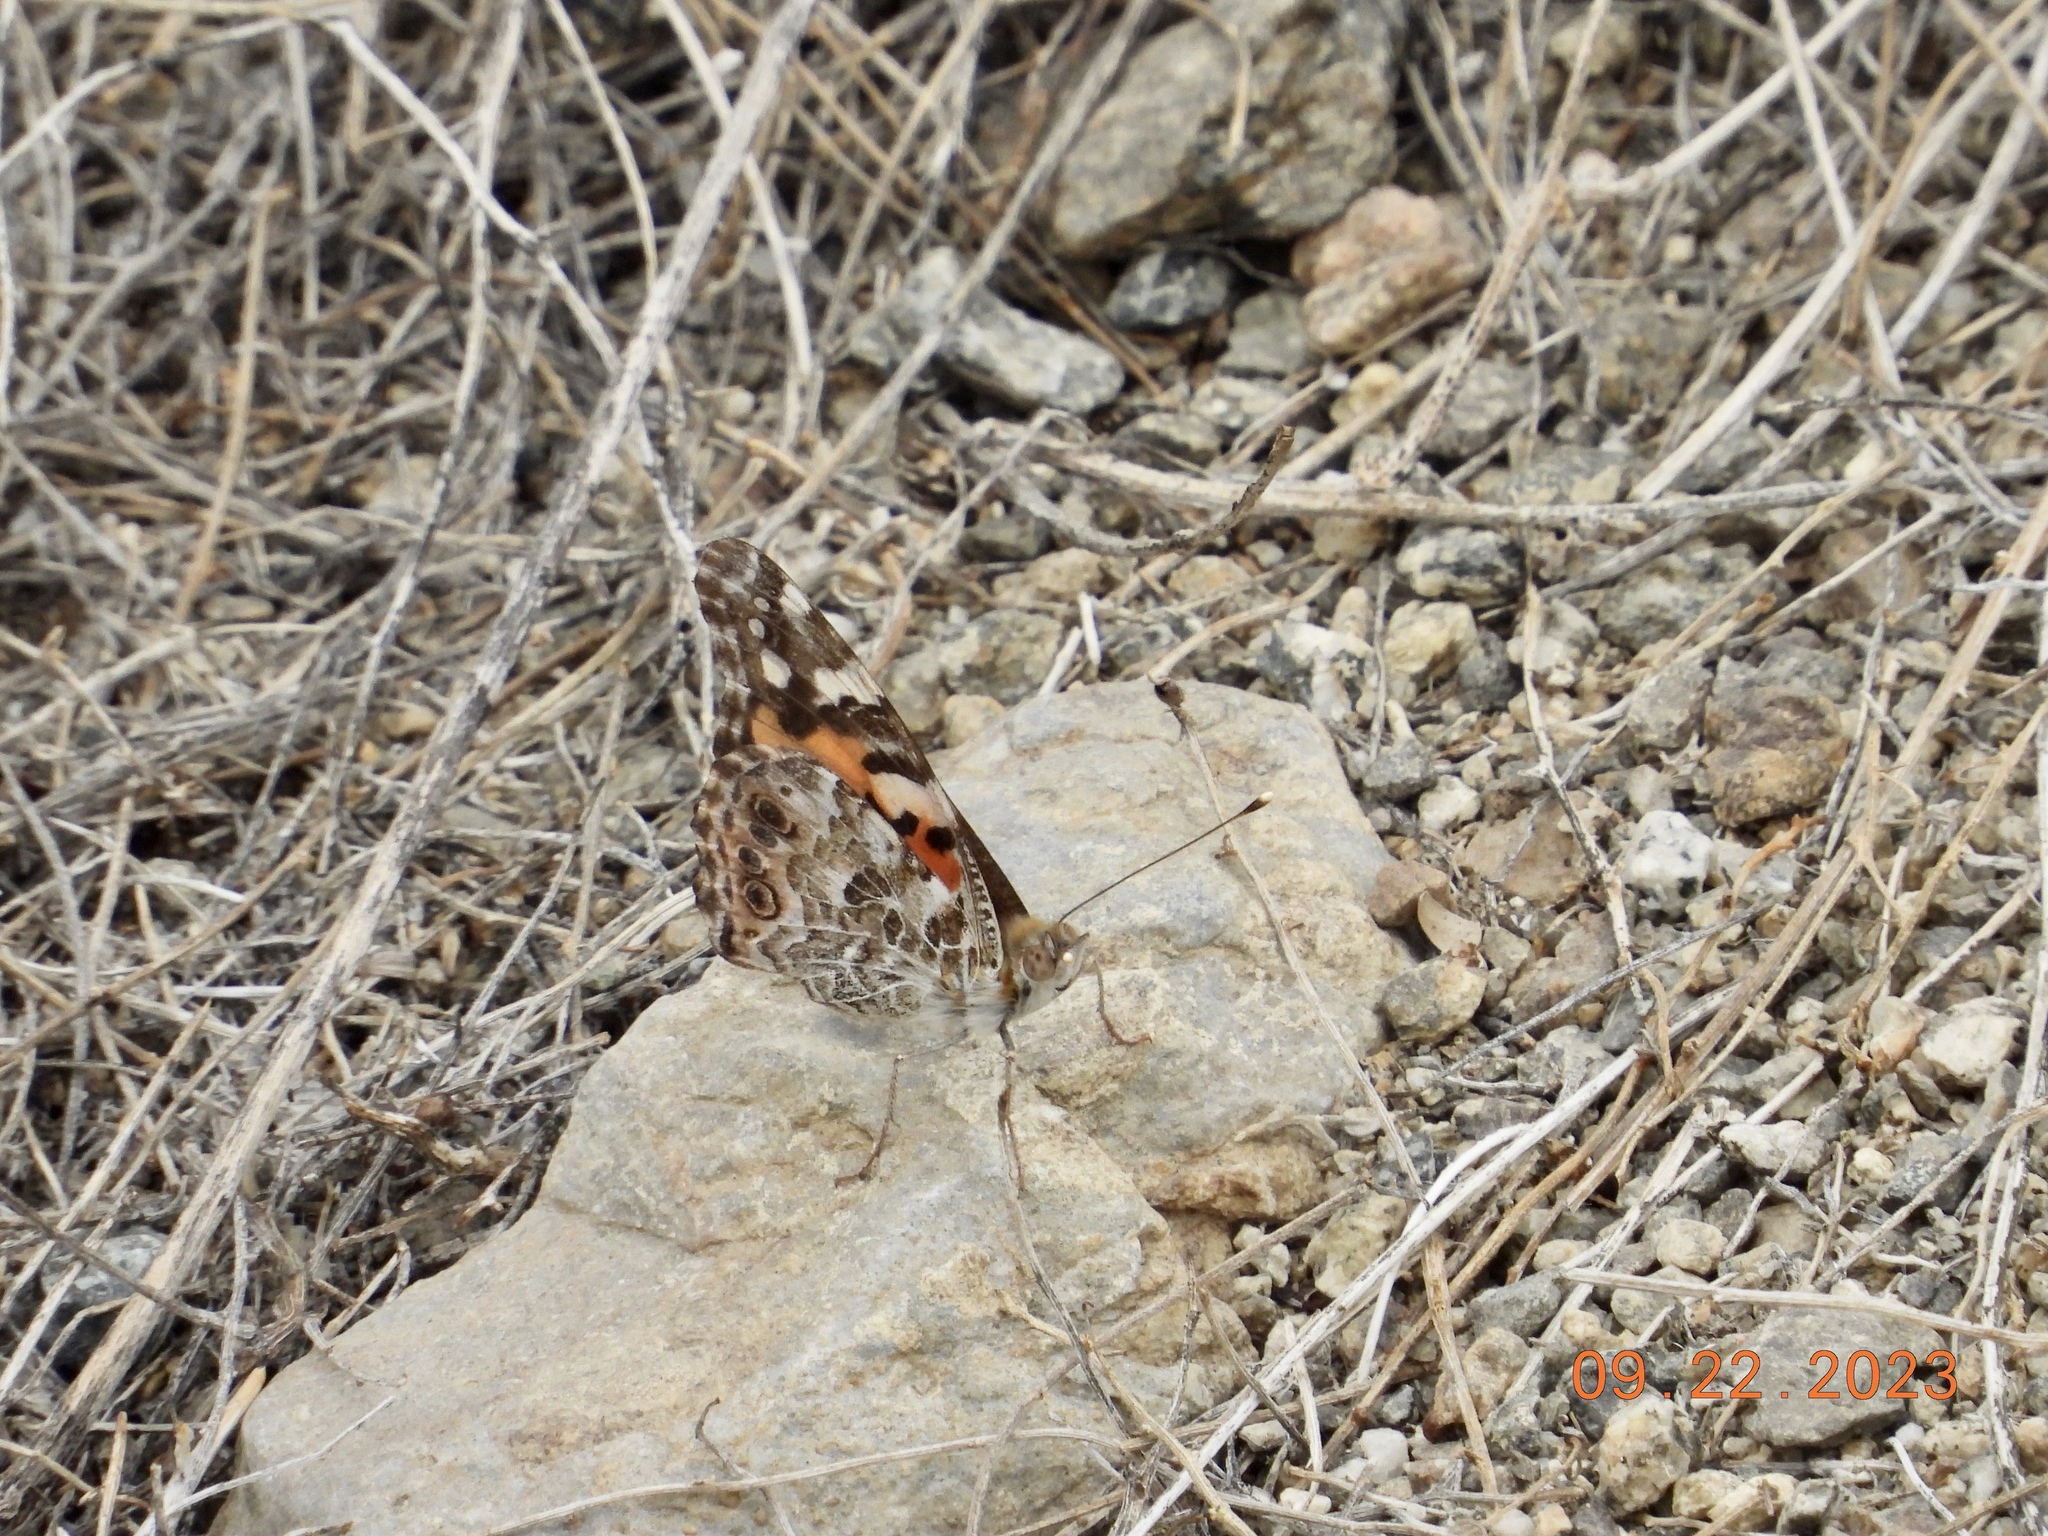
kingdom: Animalia
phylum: Arthropoda
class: Insecta
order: Lepidoptera
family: Nymphalidae
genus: Vanessa
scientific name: Vanessa cardui
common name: Painted lady
